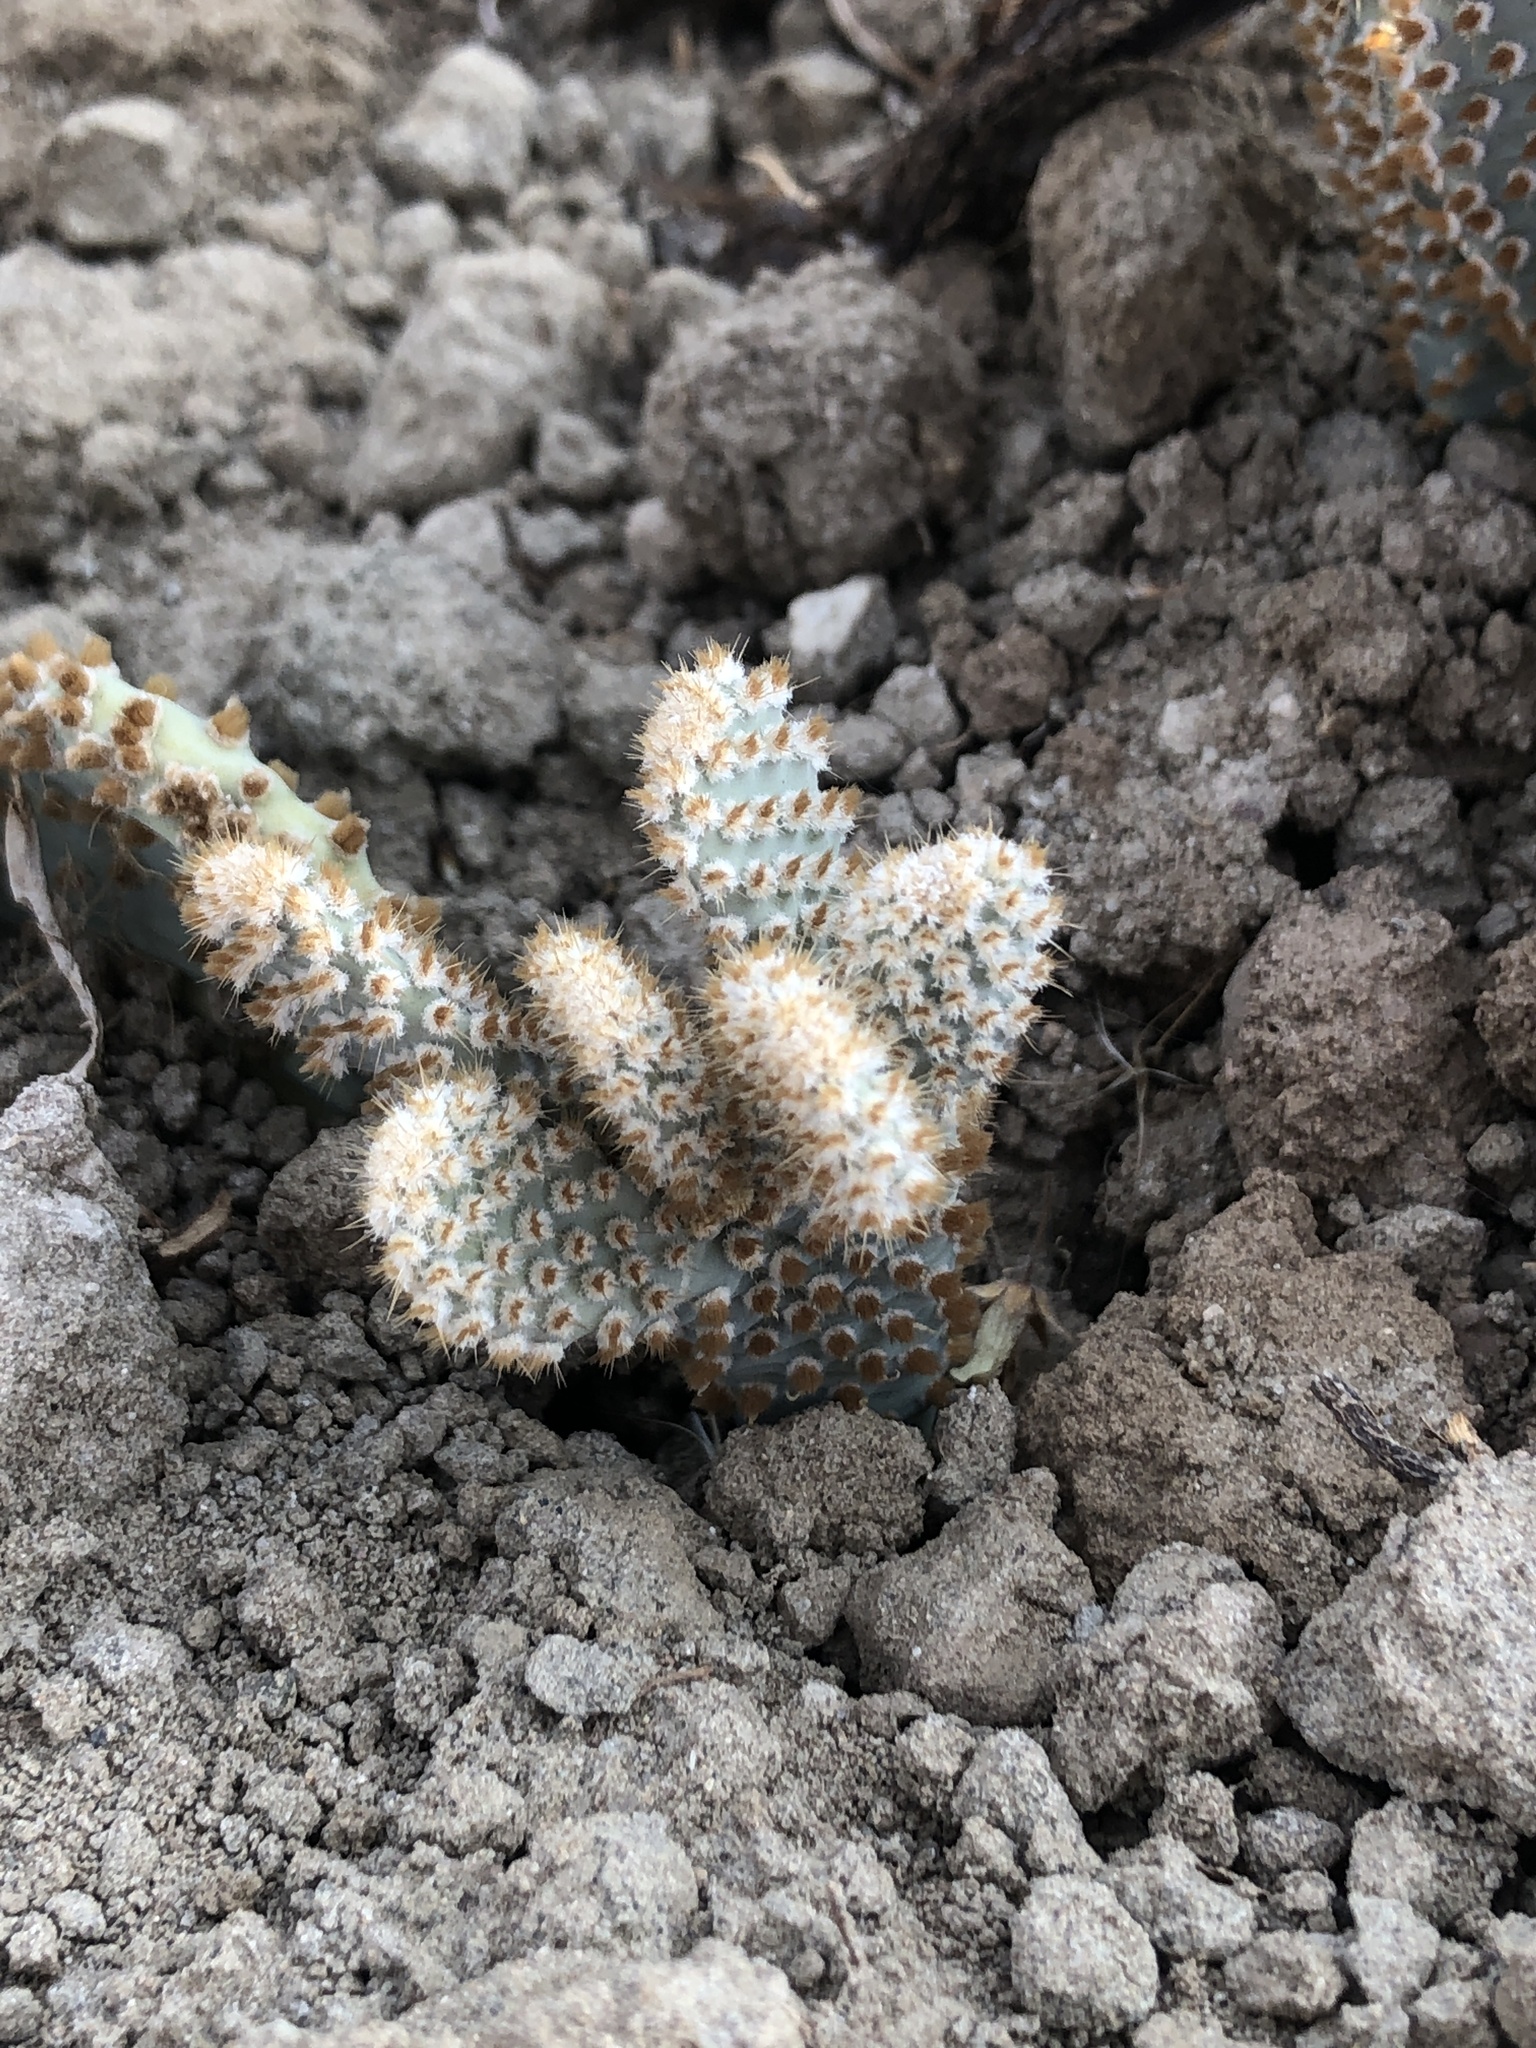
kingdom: Plantae
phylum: Tracheophyta
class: Magnoliopsida
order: Caryophyllales
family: Cactaceae
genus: Opuntia
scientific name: Opuntia basilaris
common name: Beavertail prickly-pear
